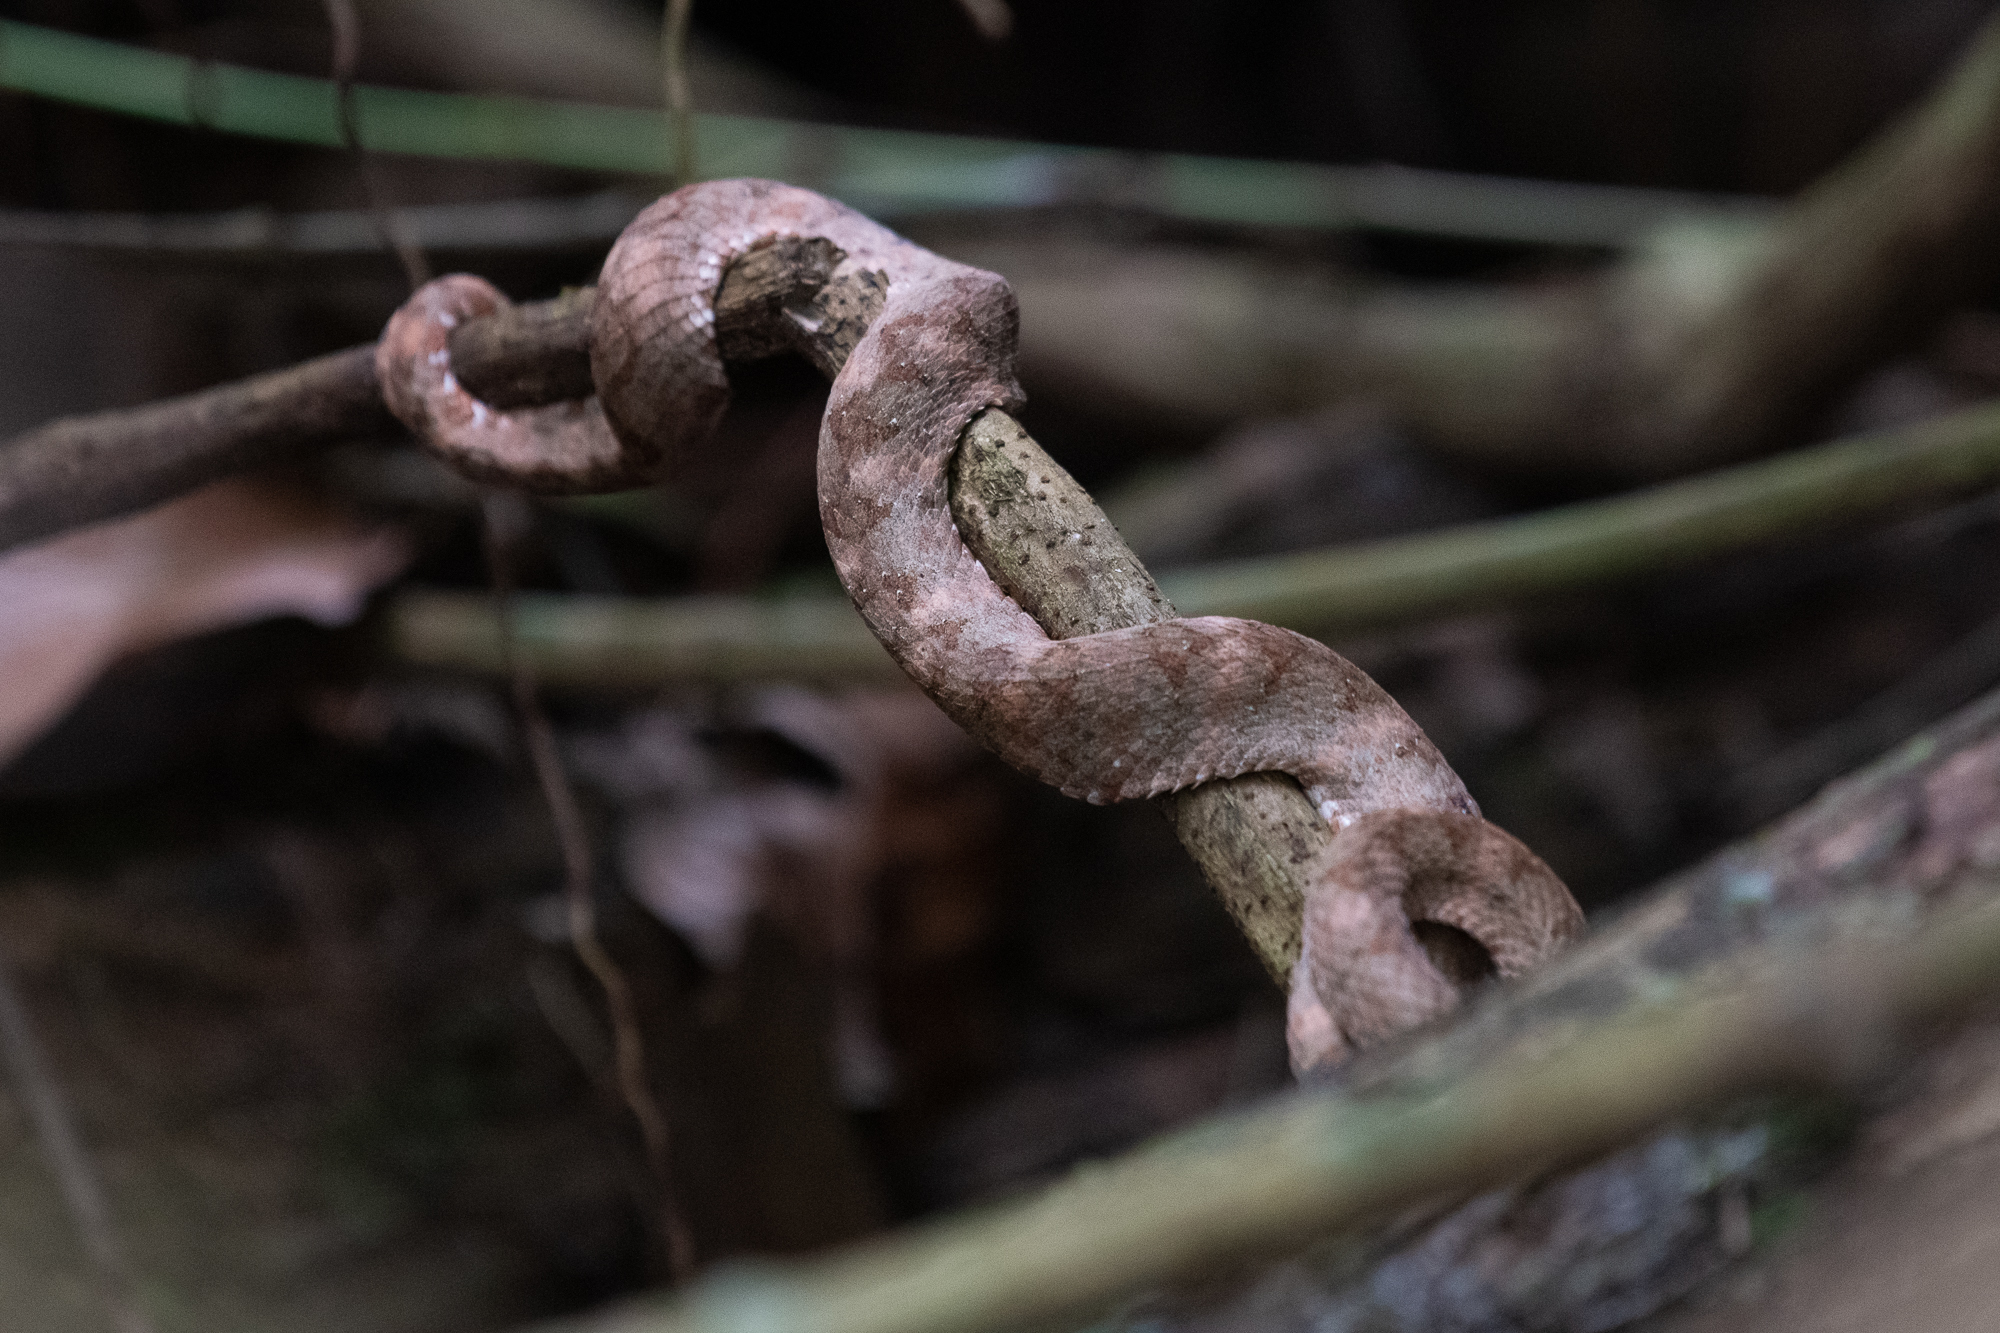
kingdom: Animalia
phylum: Chordata
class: Squamata
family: Viperidae
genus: Bothriechis
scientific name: Bothriechis schlegelii
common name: Eyelash viper
